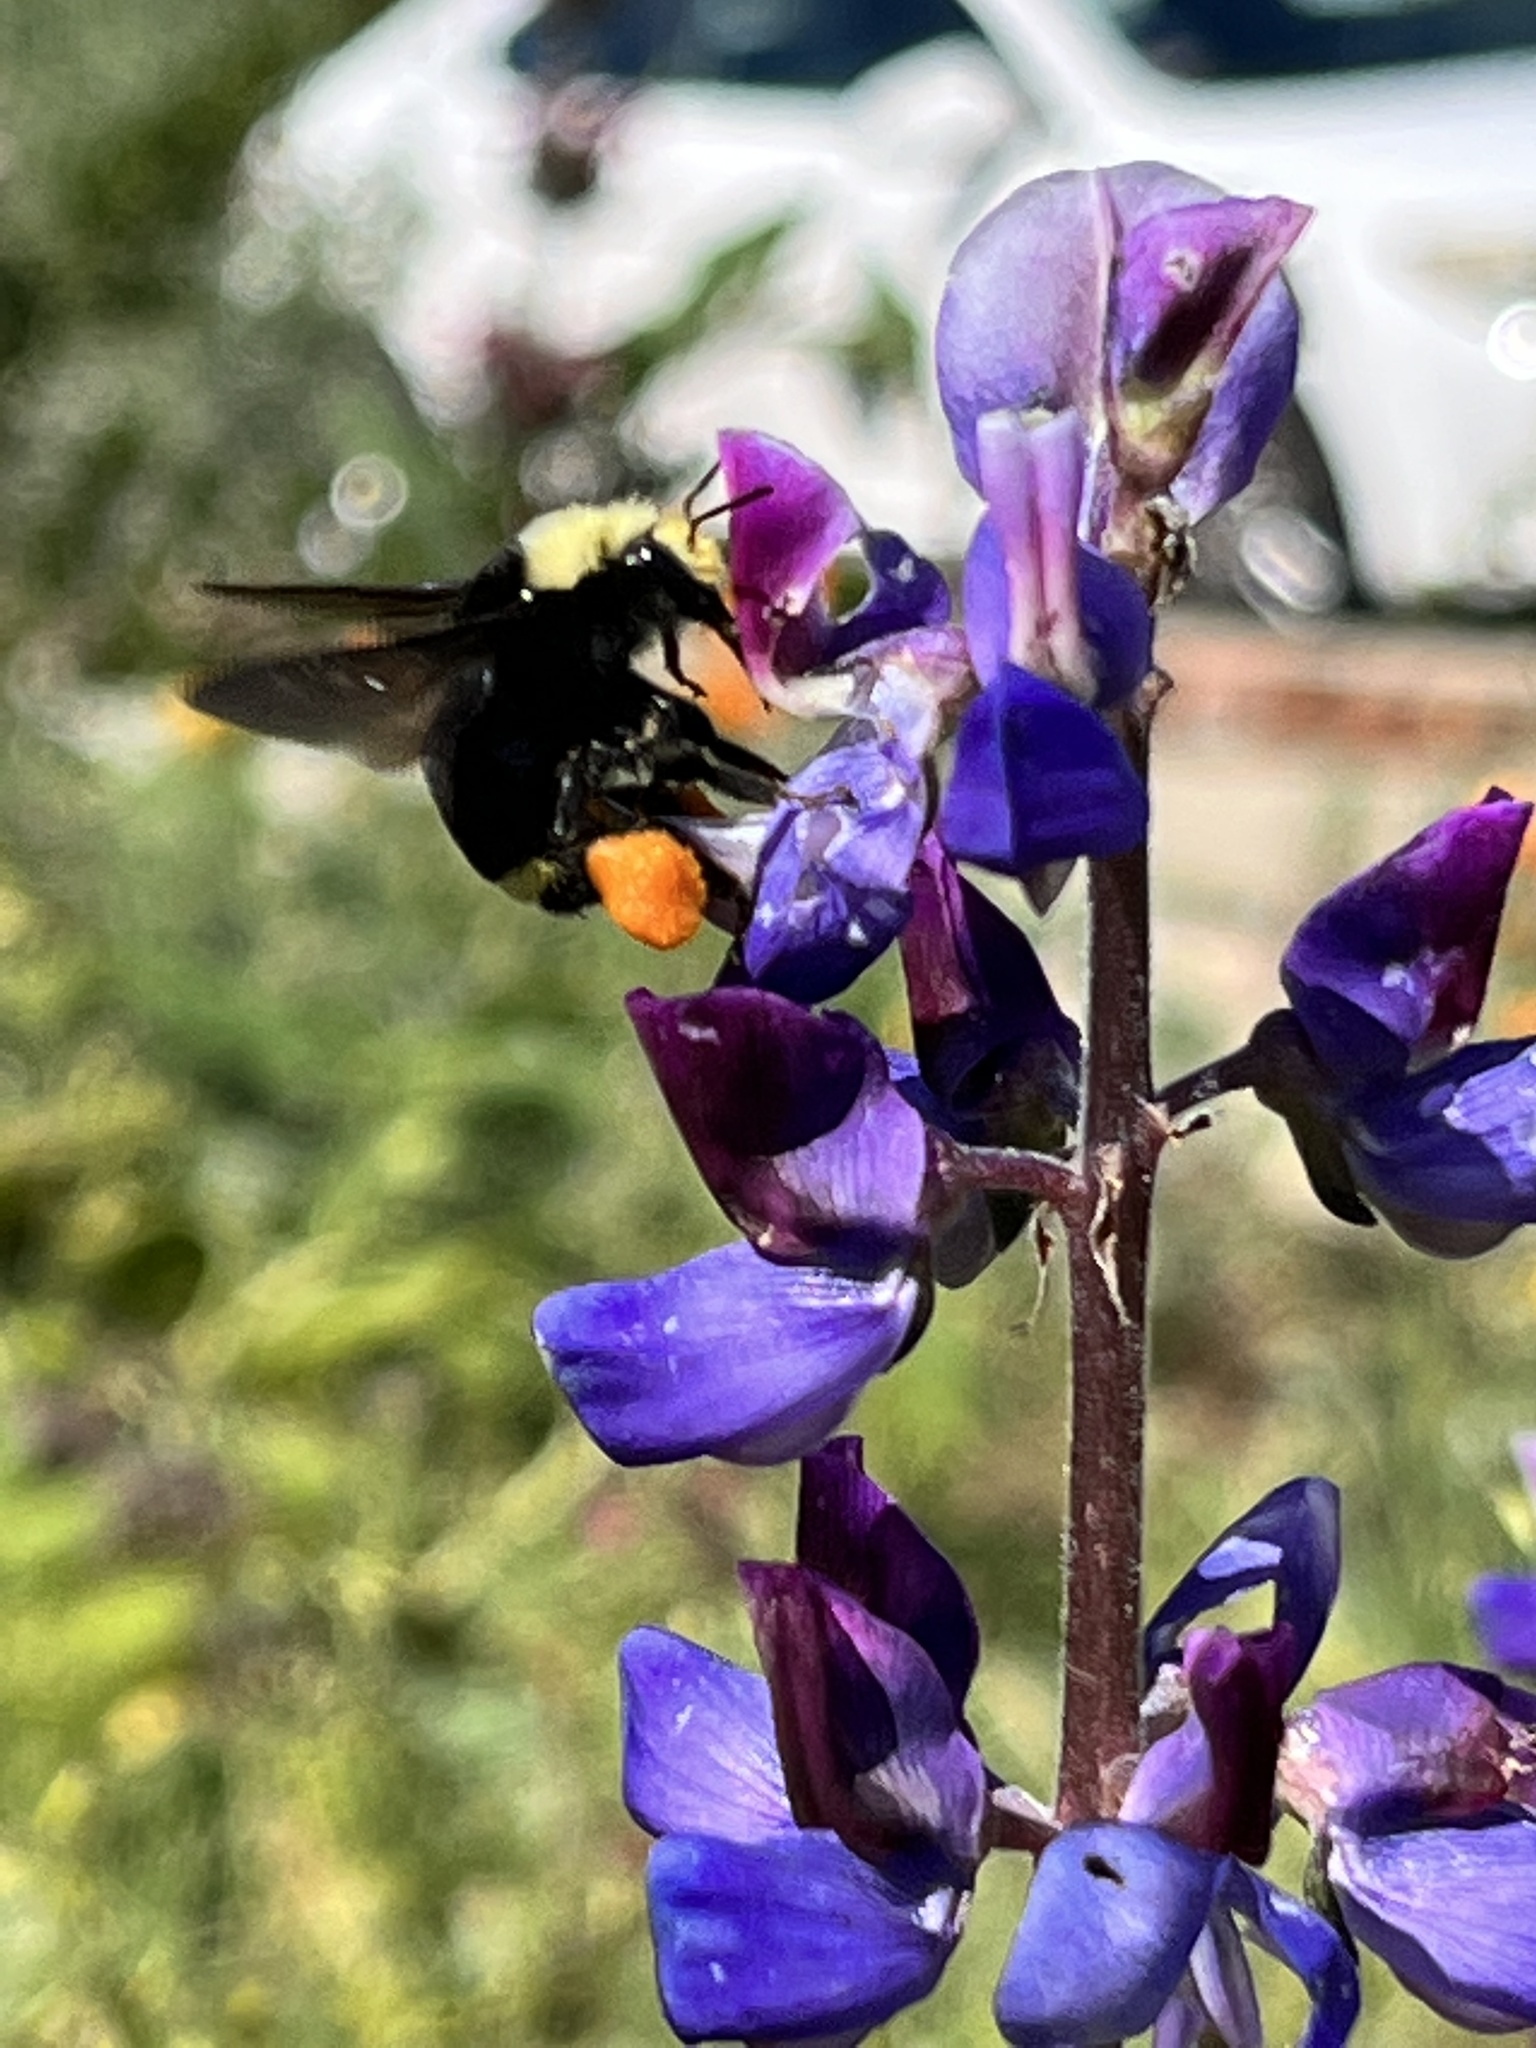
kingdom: Animalia
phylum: Arthropoda
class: Insecta
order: Hymenoptera
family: Apidae
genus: Bombus
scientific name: Bombus vosnesenskii
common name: Vosnesensky bumble bee
